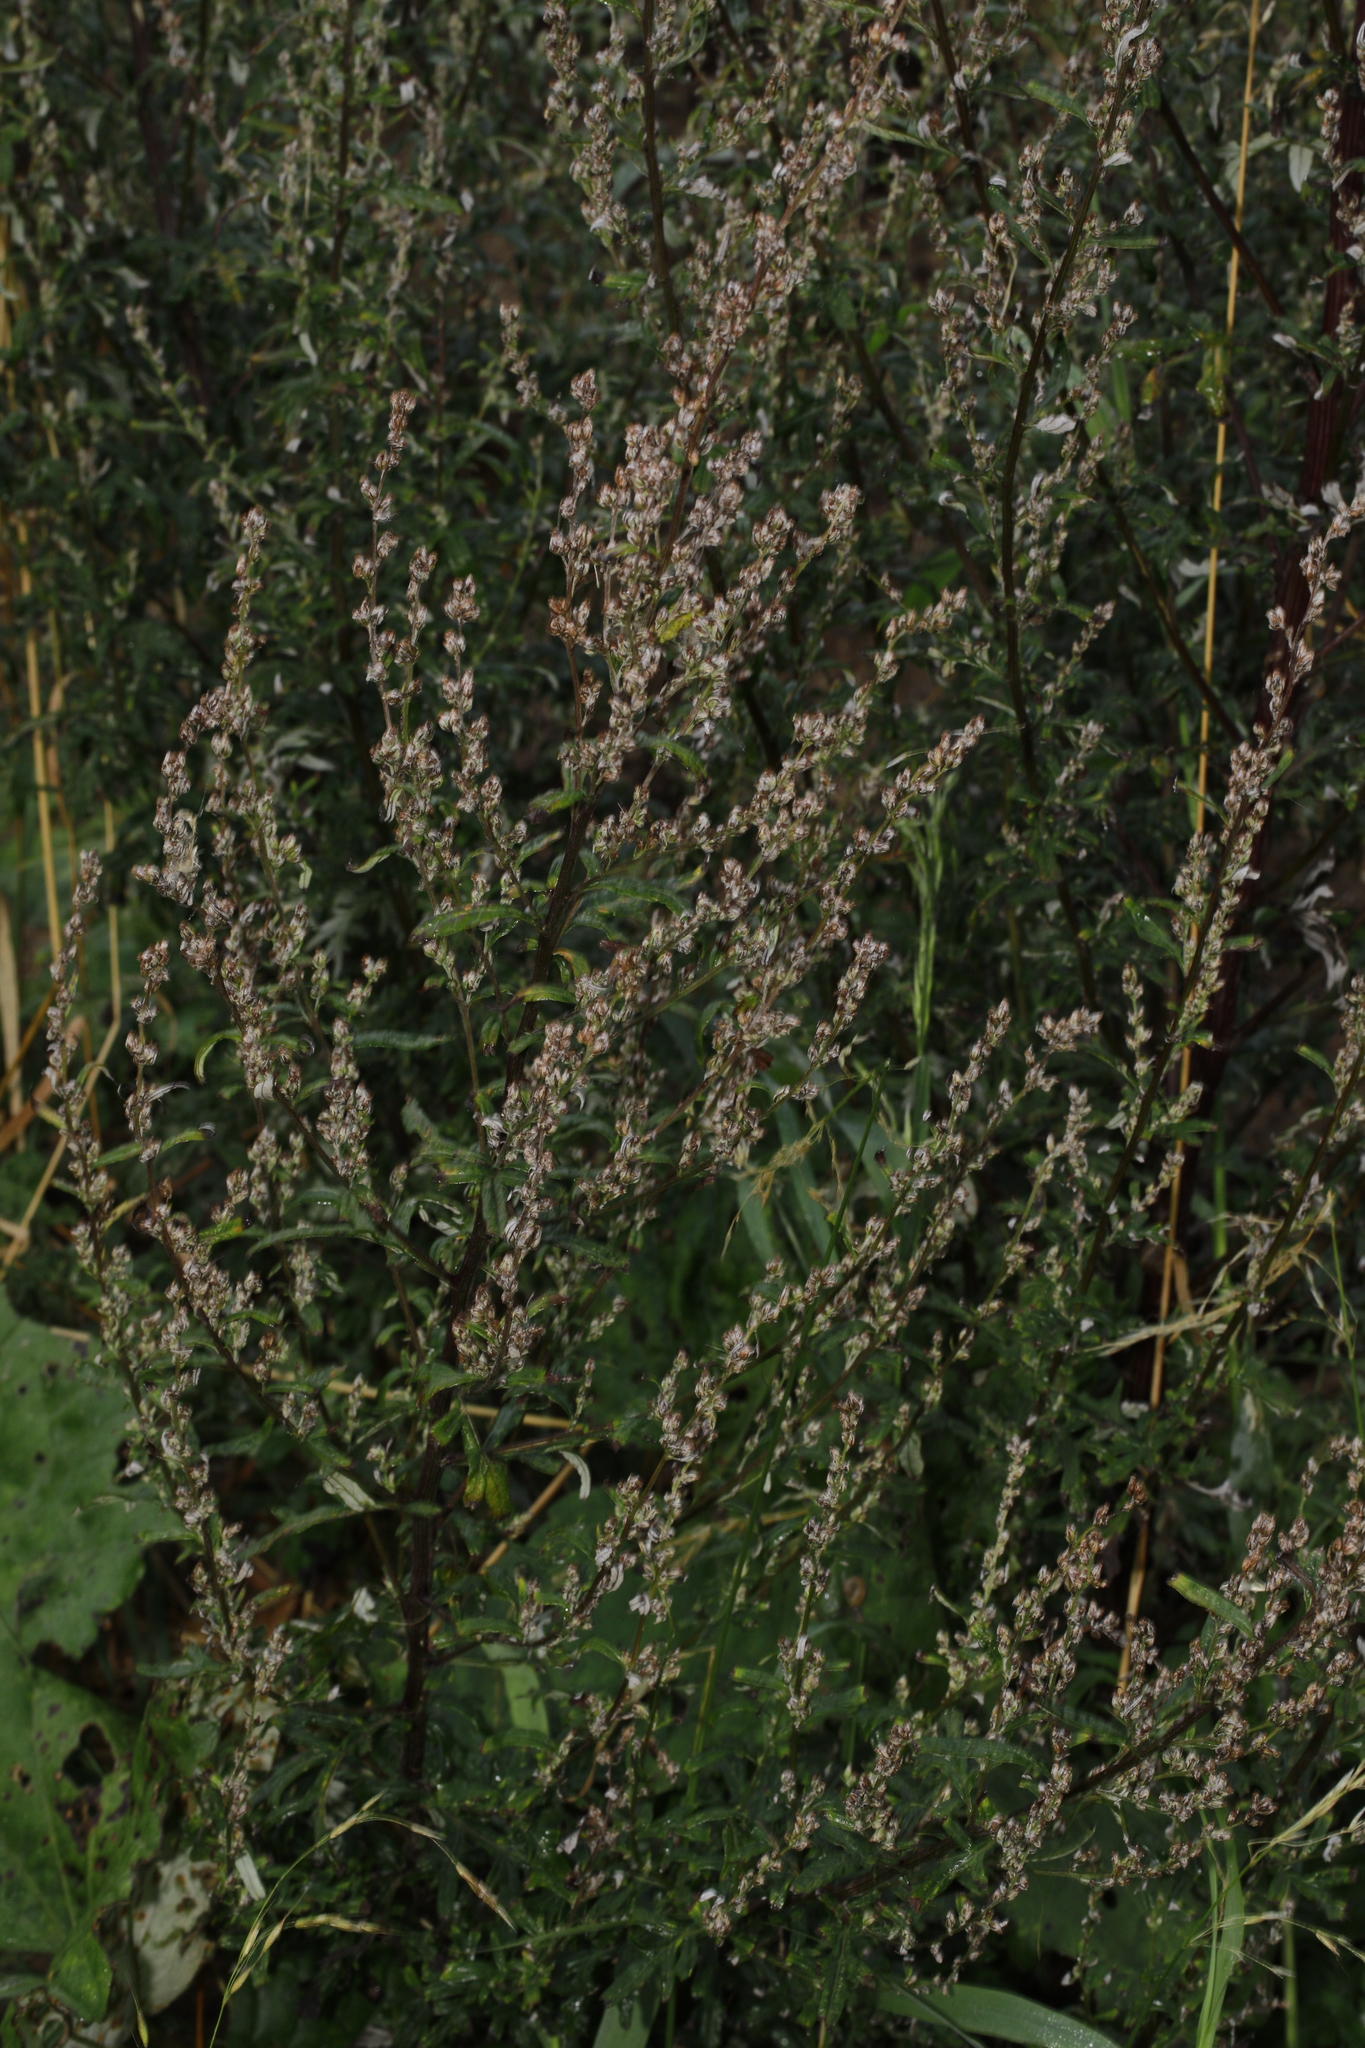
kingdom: Plantae
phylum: Tracheophyta
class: Magnoliopsida
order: Asterales
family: Asteraceae
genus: Artemisia
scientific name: Artemisia vulgaris
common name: Mugwort
